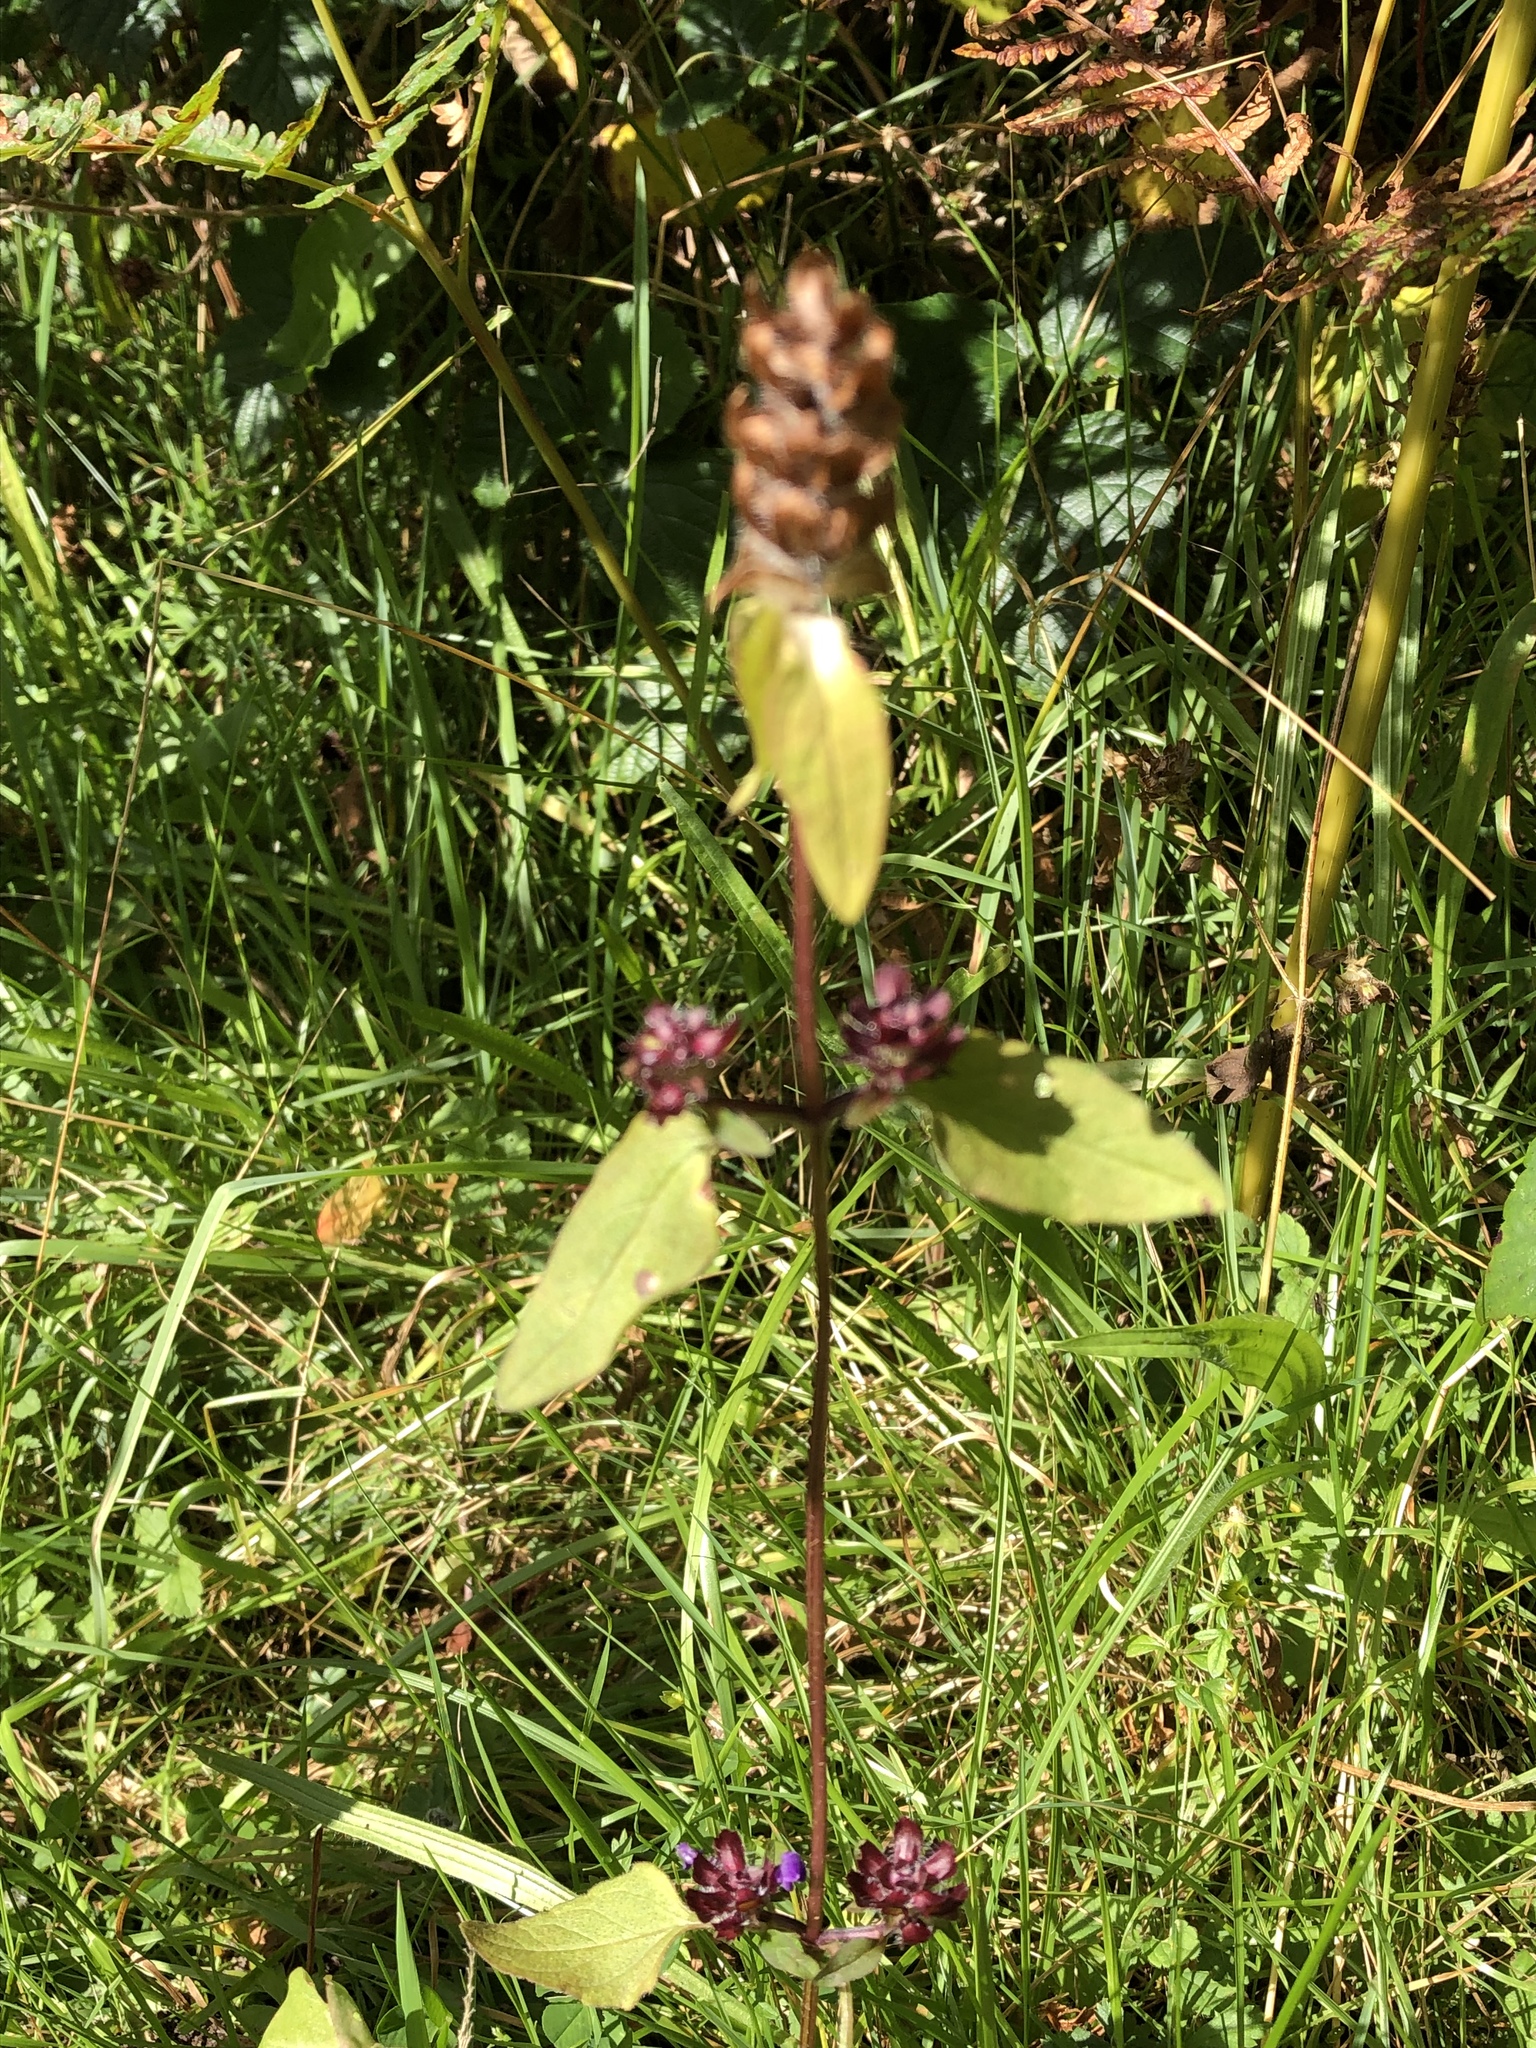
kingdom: Plantae
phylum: Tracheophyta
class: Magnoliopsida
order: Lamiales
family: Lamiaceae
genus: Prunella
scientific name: Prunella vulgaris
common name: Heal-all
